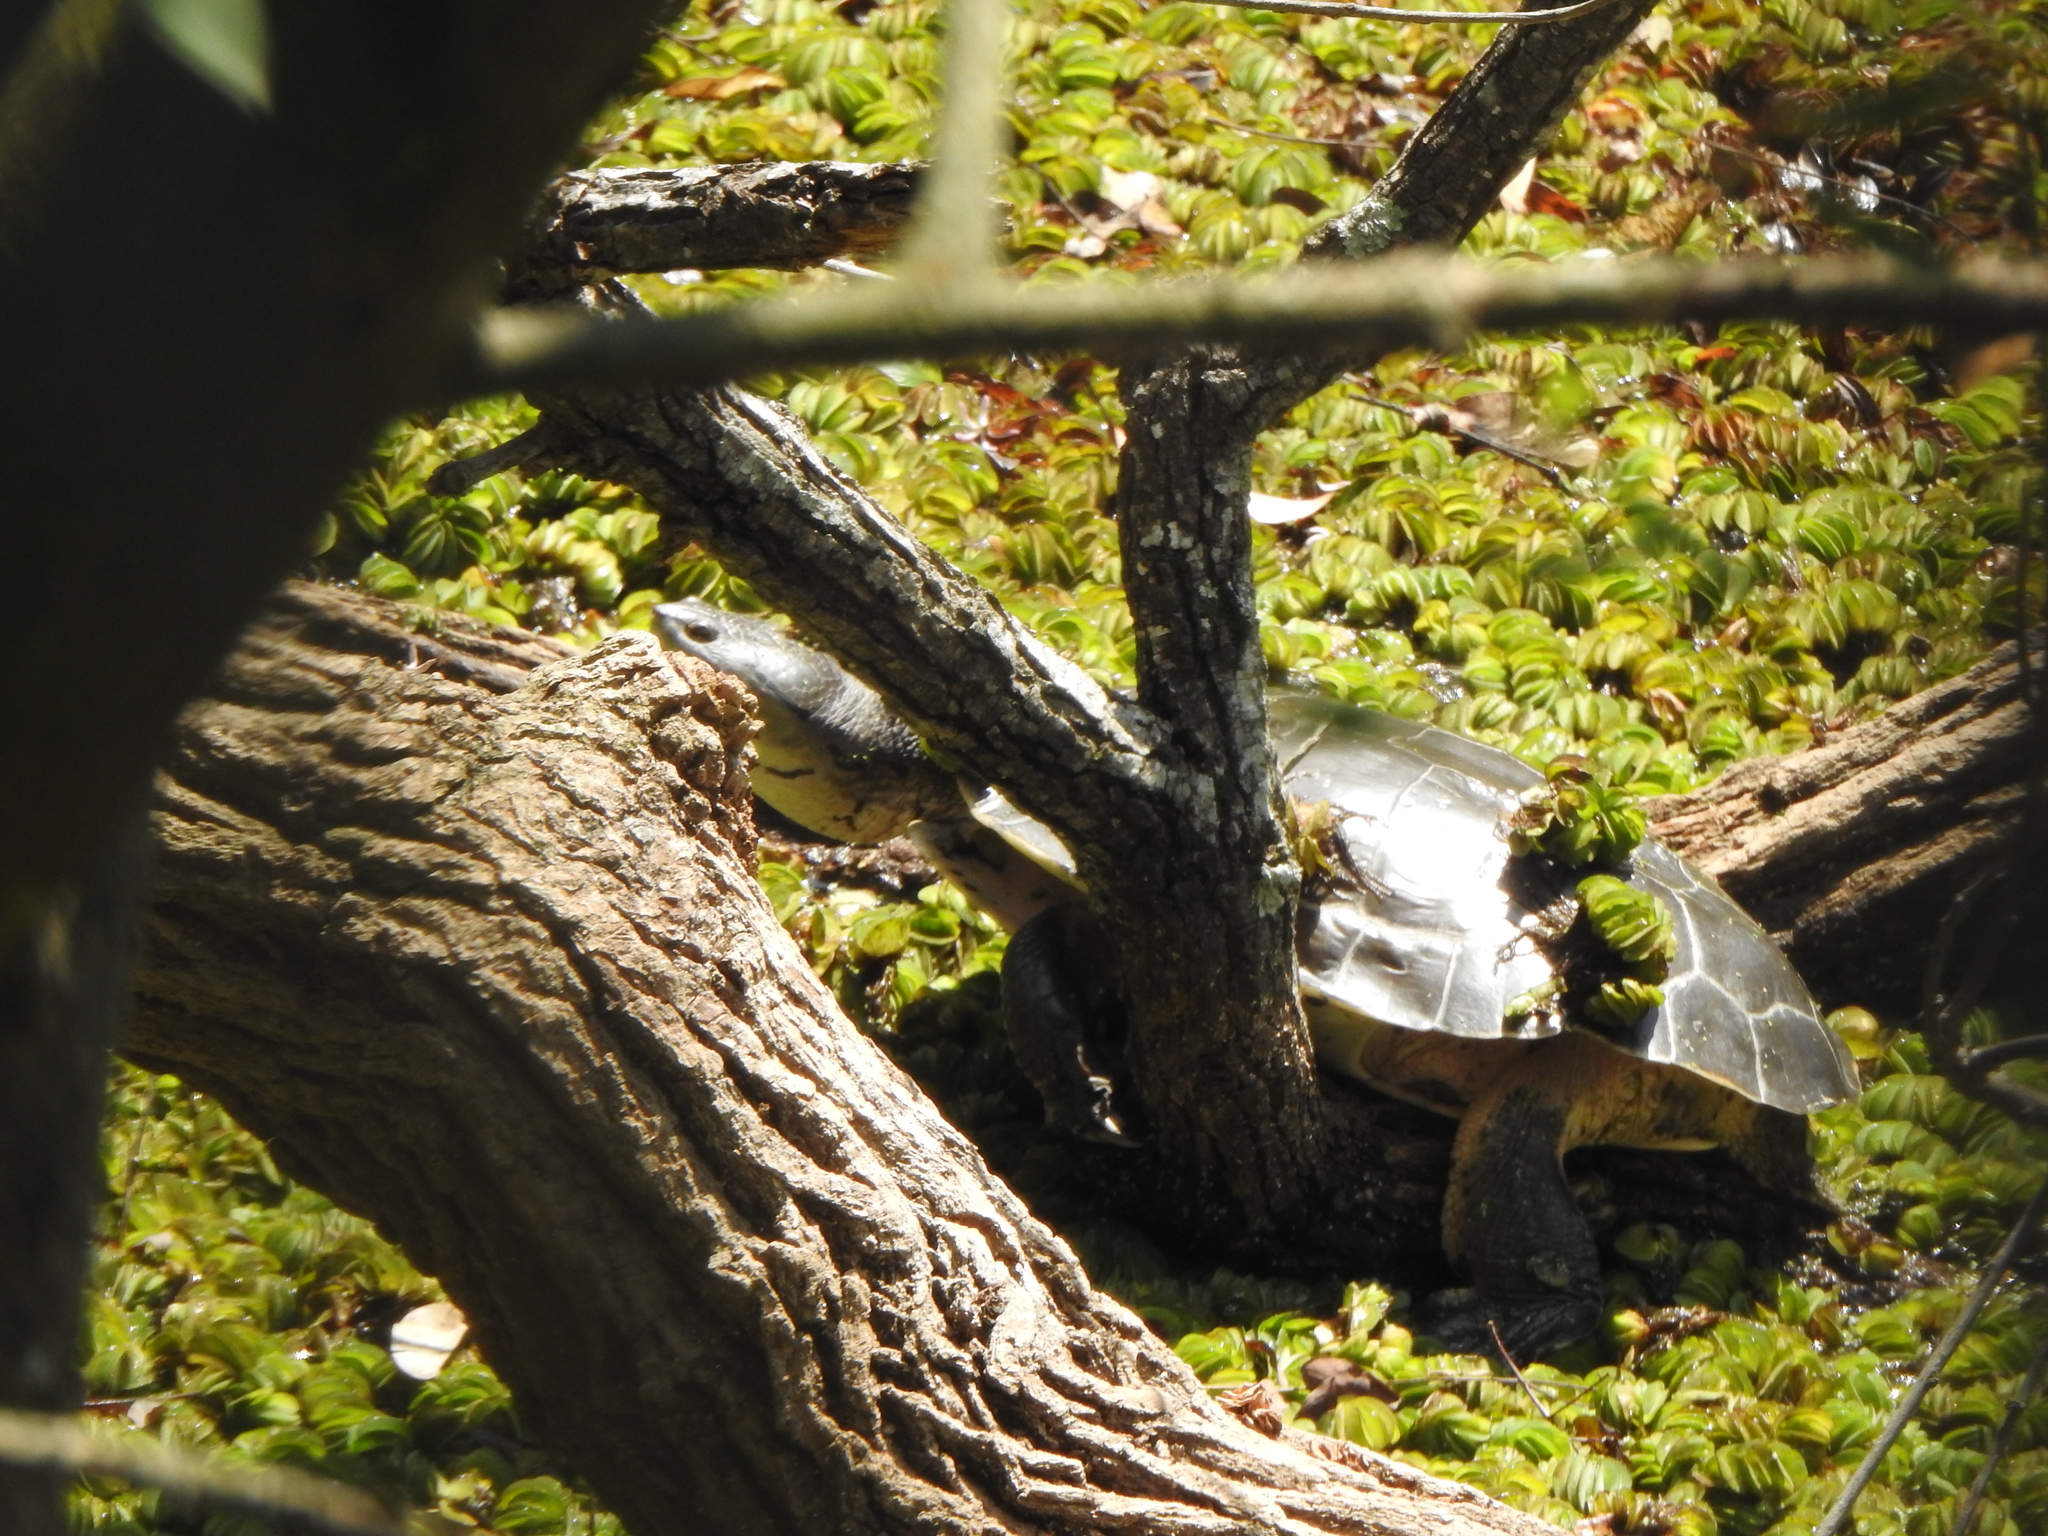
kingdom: Animalia
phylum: Chordata
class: Testudines
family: Chelidae
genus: Phrynops
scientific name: Phrynops hilarii
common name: Side-necked turtle of saint hillaire
